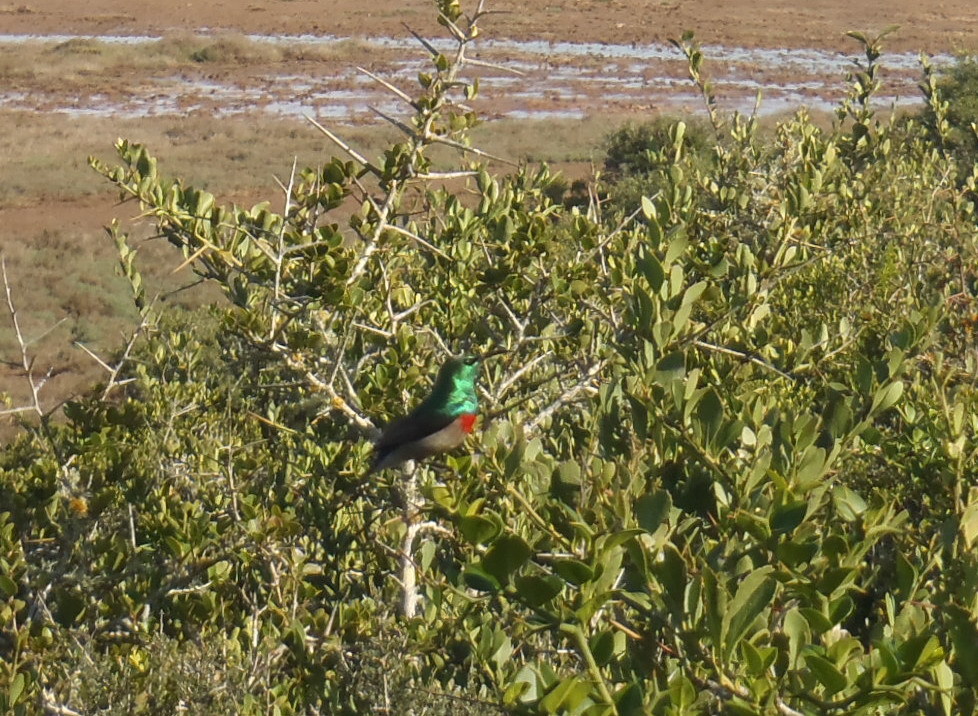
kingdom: Animalia
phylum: Chordata
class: Aves
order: Passeriformes
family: Nectariniidae
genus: Cinnyris
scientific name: Cinnyris chalybeus
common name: Southern double-collared sunbird
